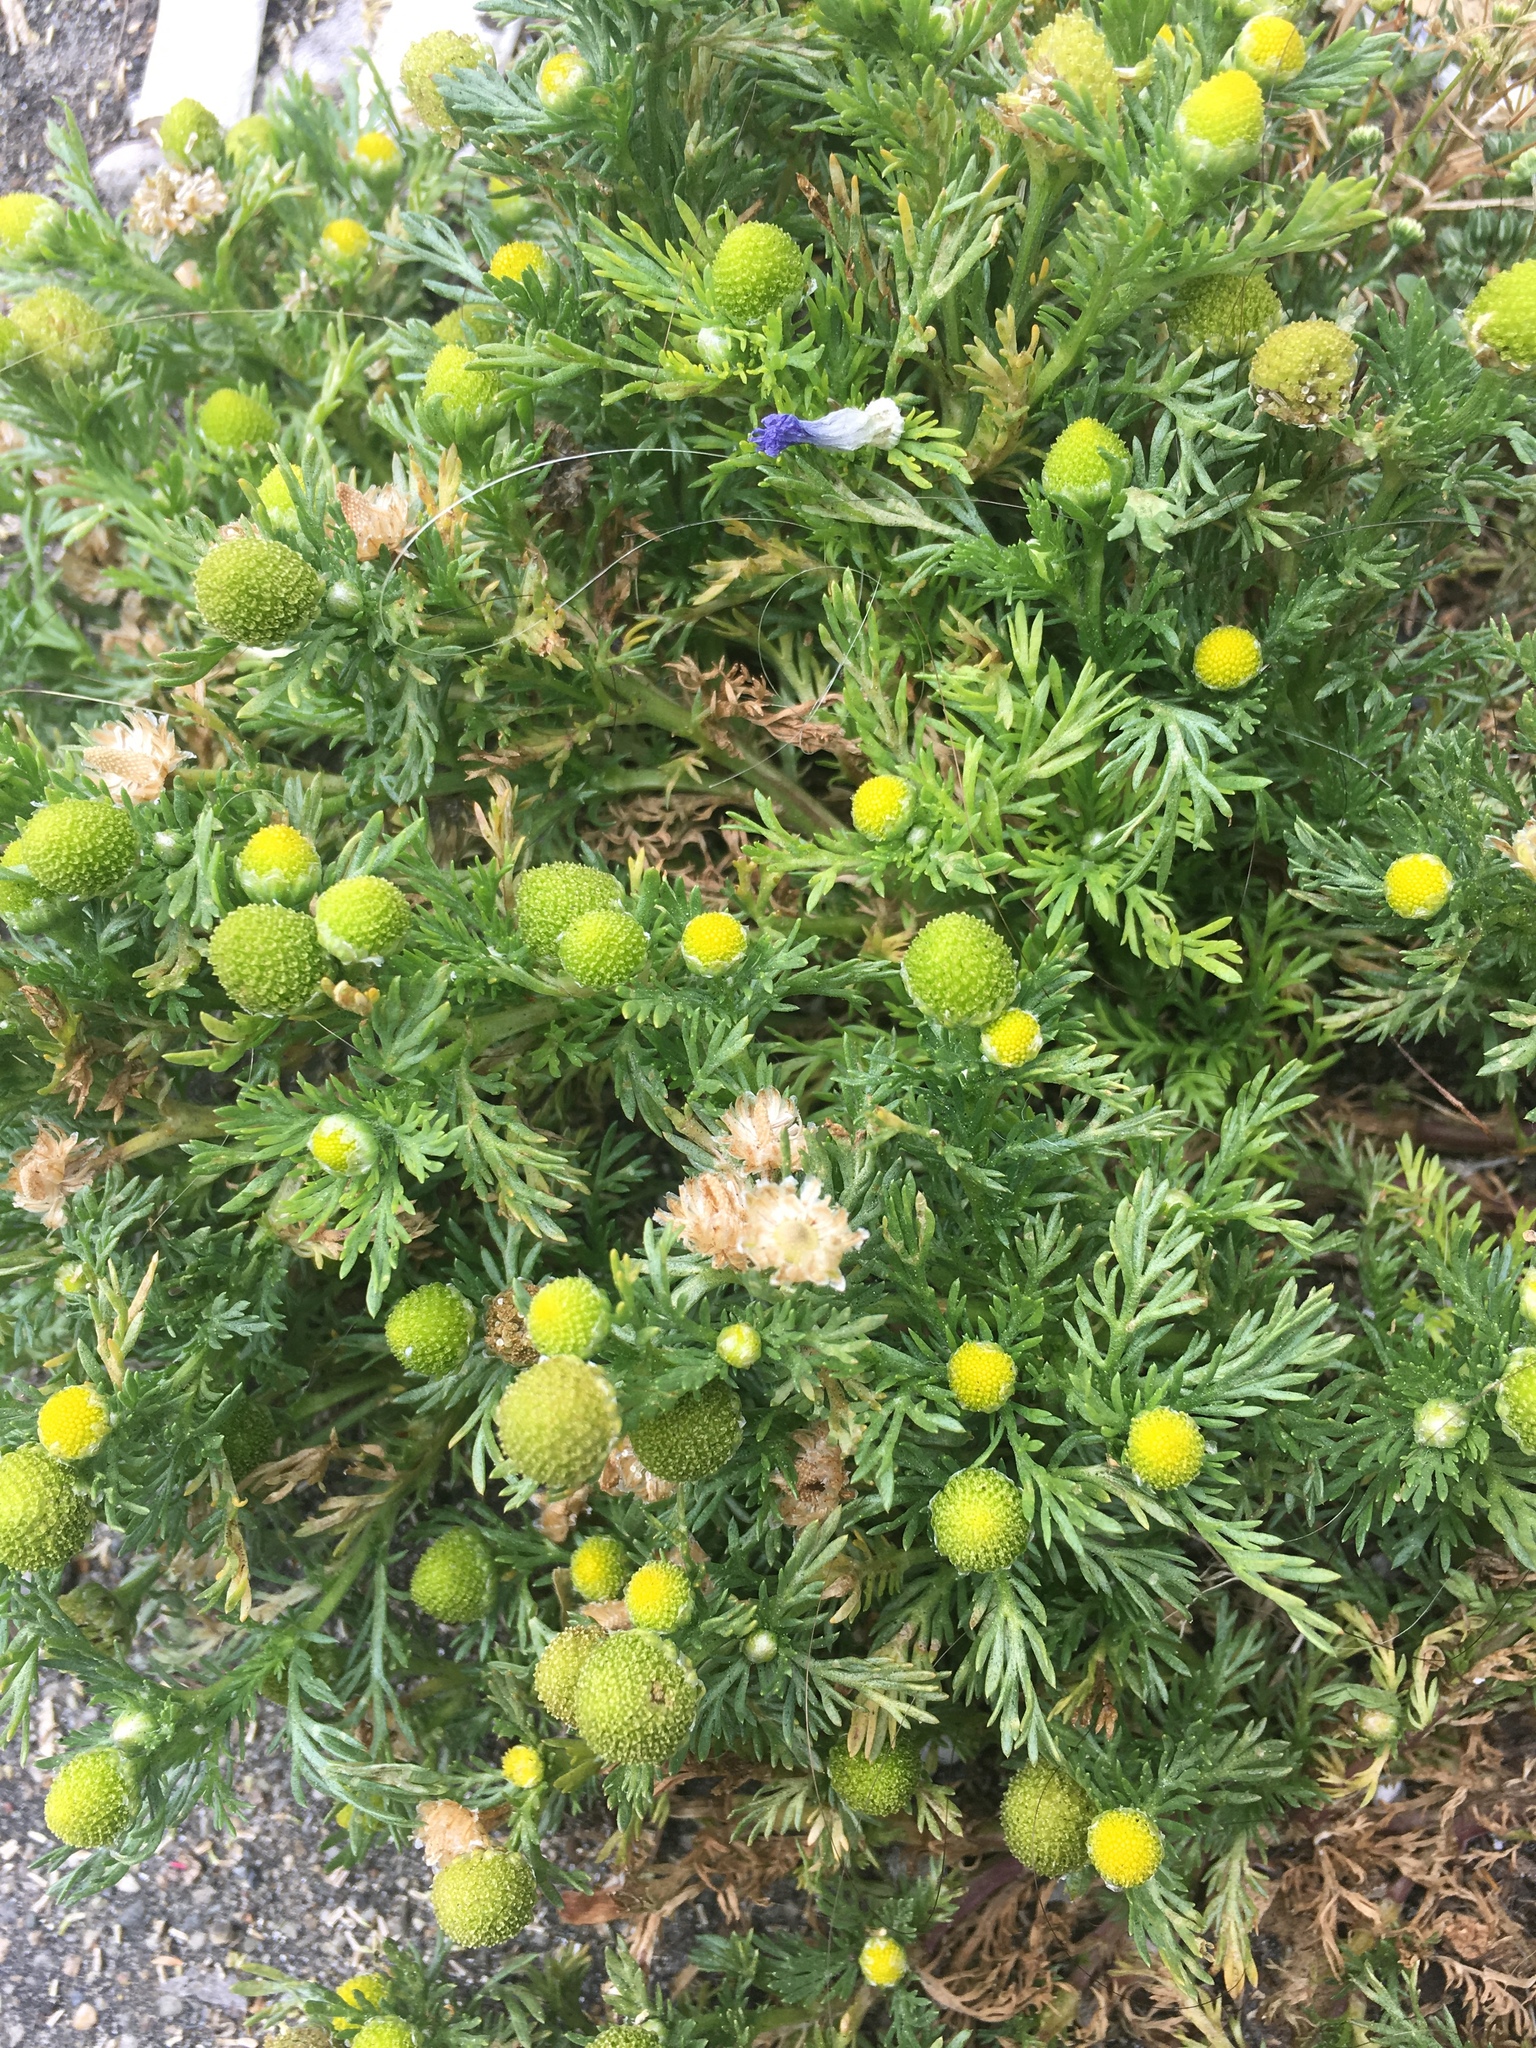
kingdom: Plantae
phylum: Tracheophyta
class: Magnoliopsida
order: Asterales
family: Asteraceae
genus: Matricaria
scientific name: Matricaria discoidea
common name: Disc mayweed
